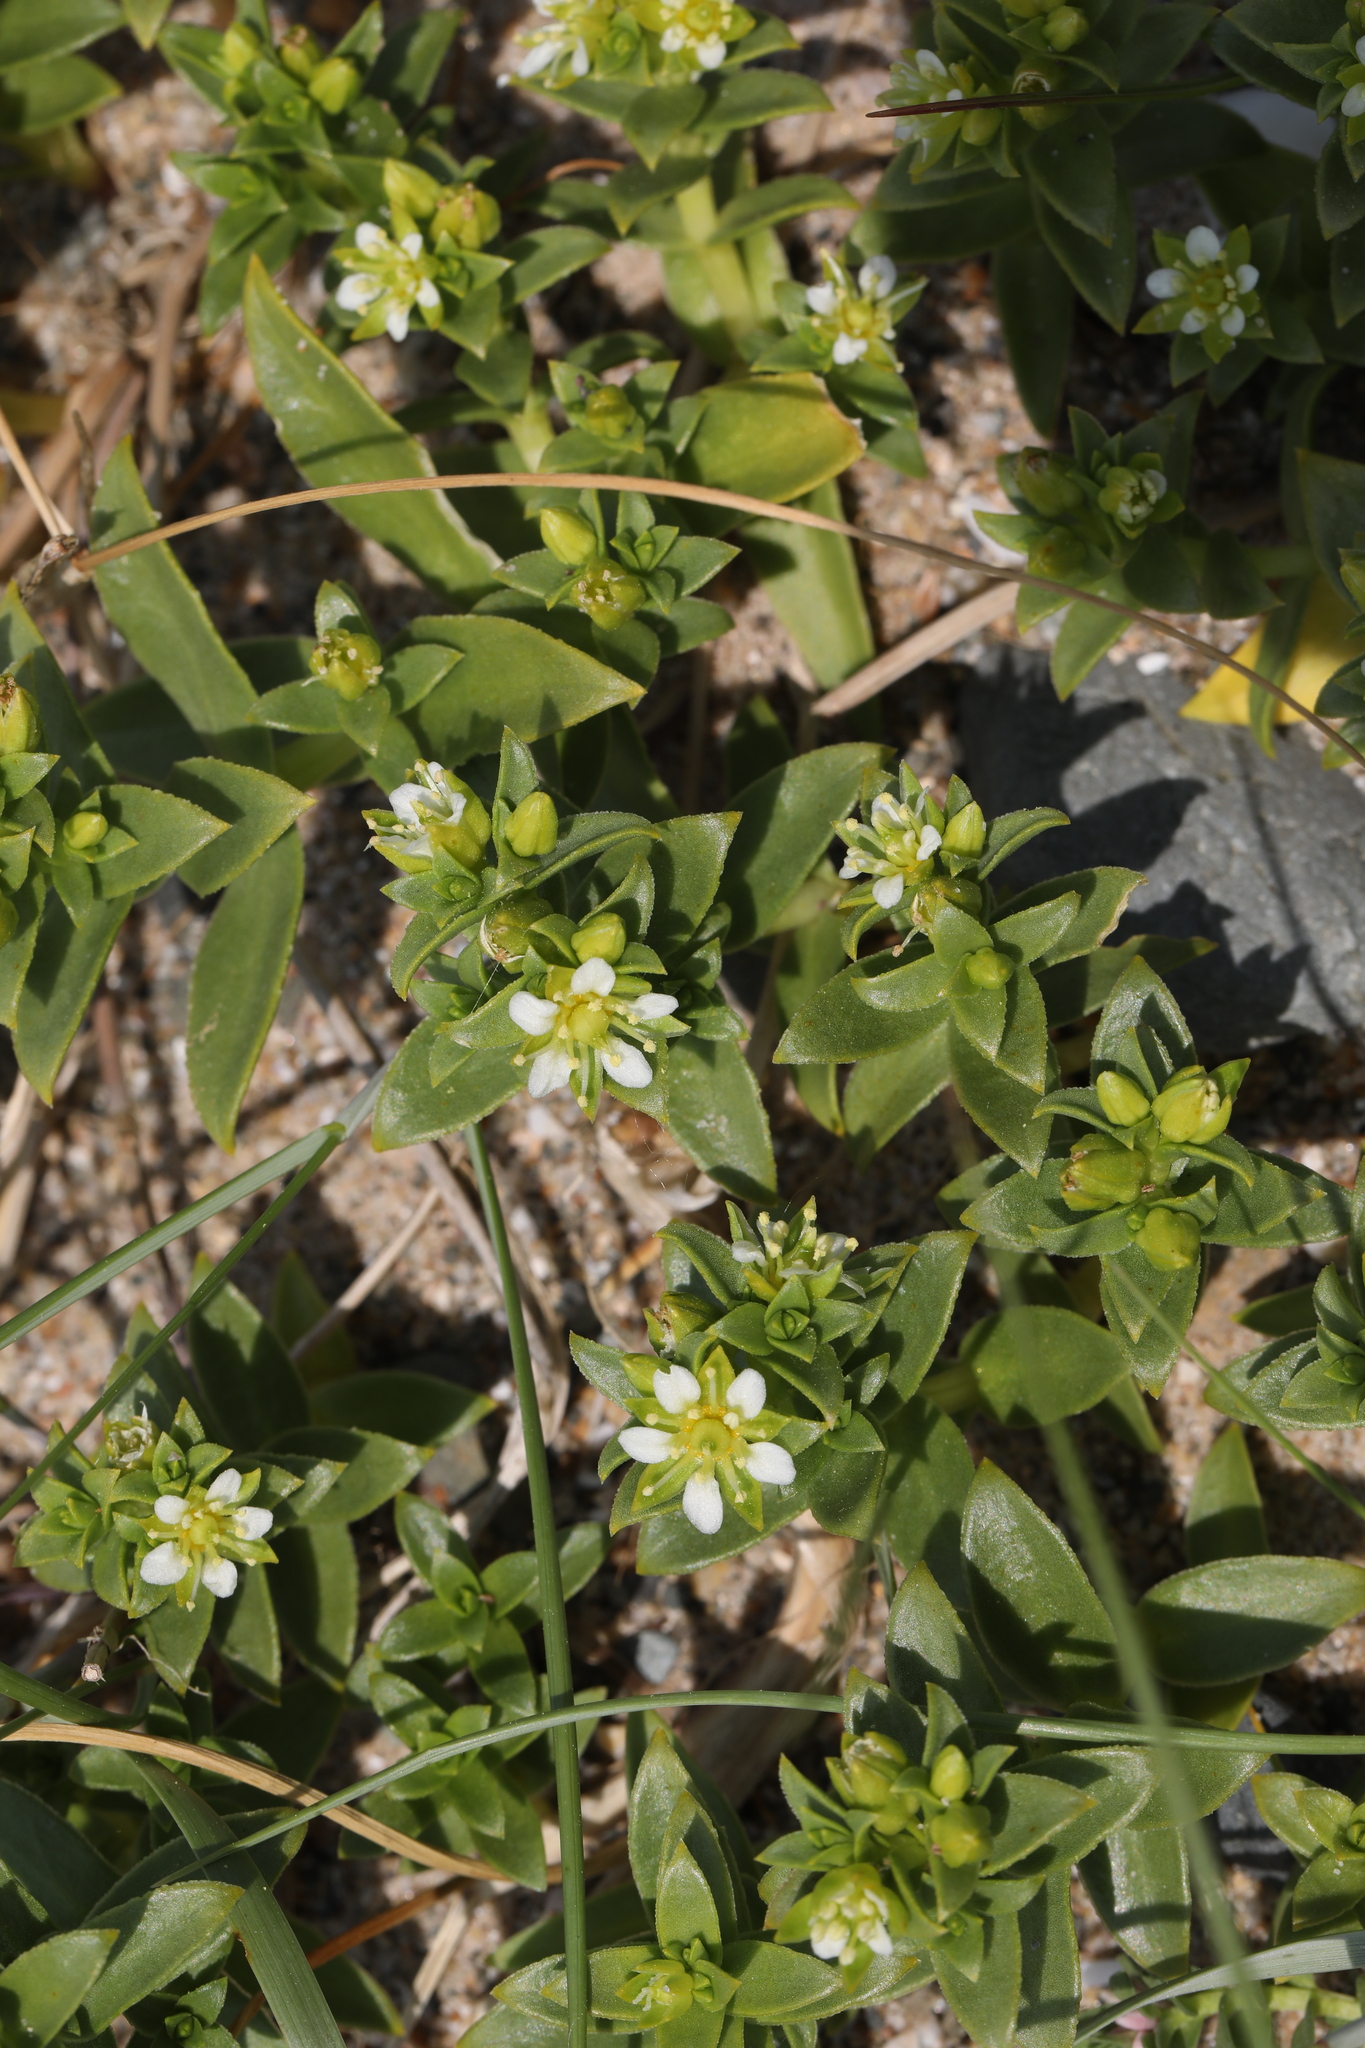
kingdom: Plantae
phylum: Tracheophyta
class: Magnoliopsida
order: Caryophyllales
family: Caryophyllaceae
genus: Honckenya
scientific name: Honckenya peploides
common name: Sea sandwort
